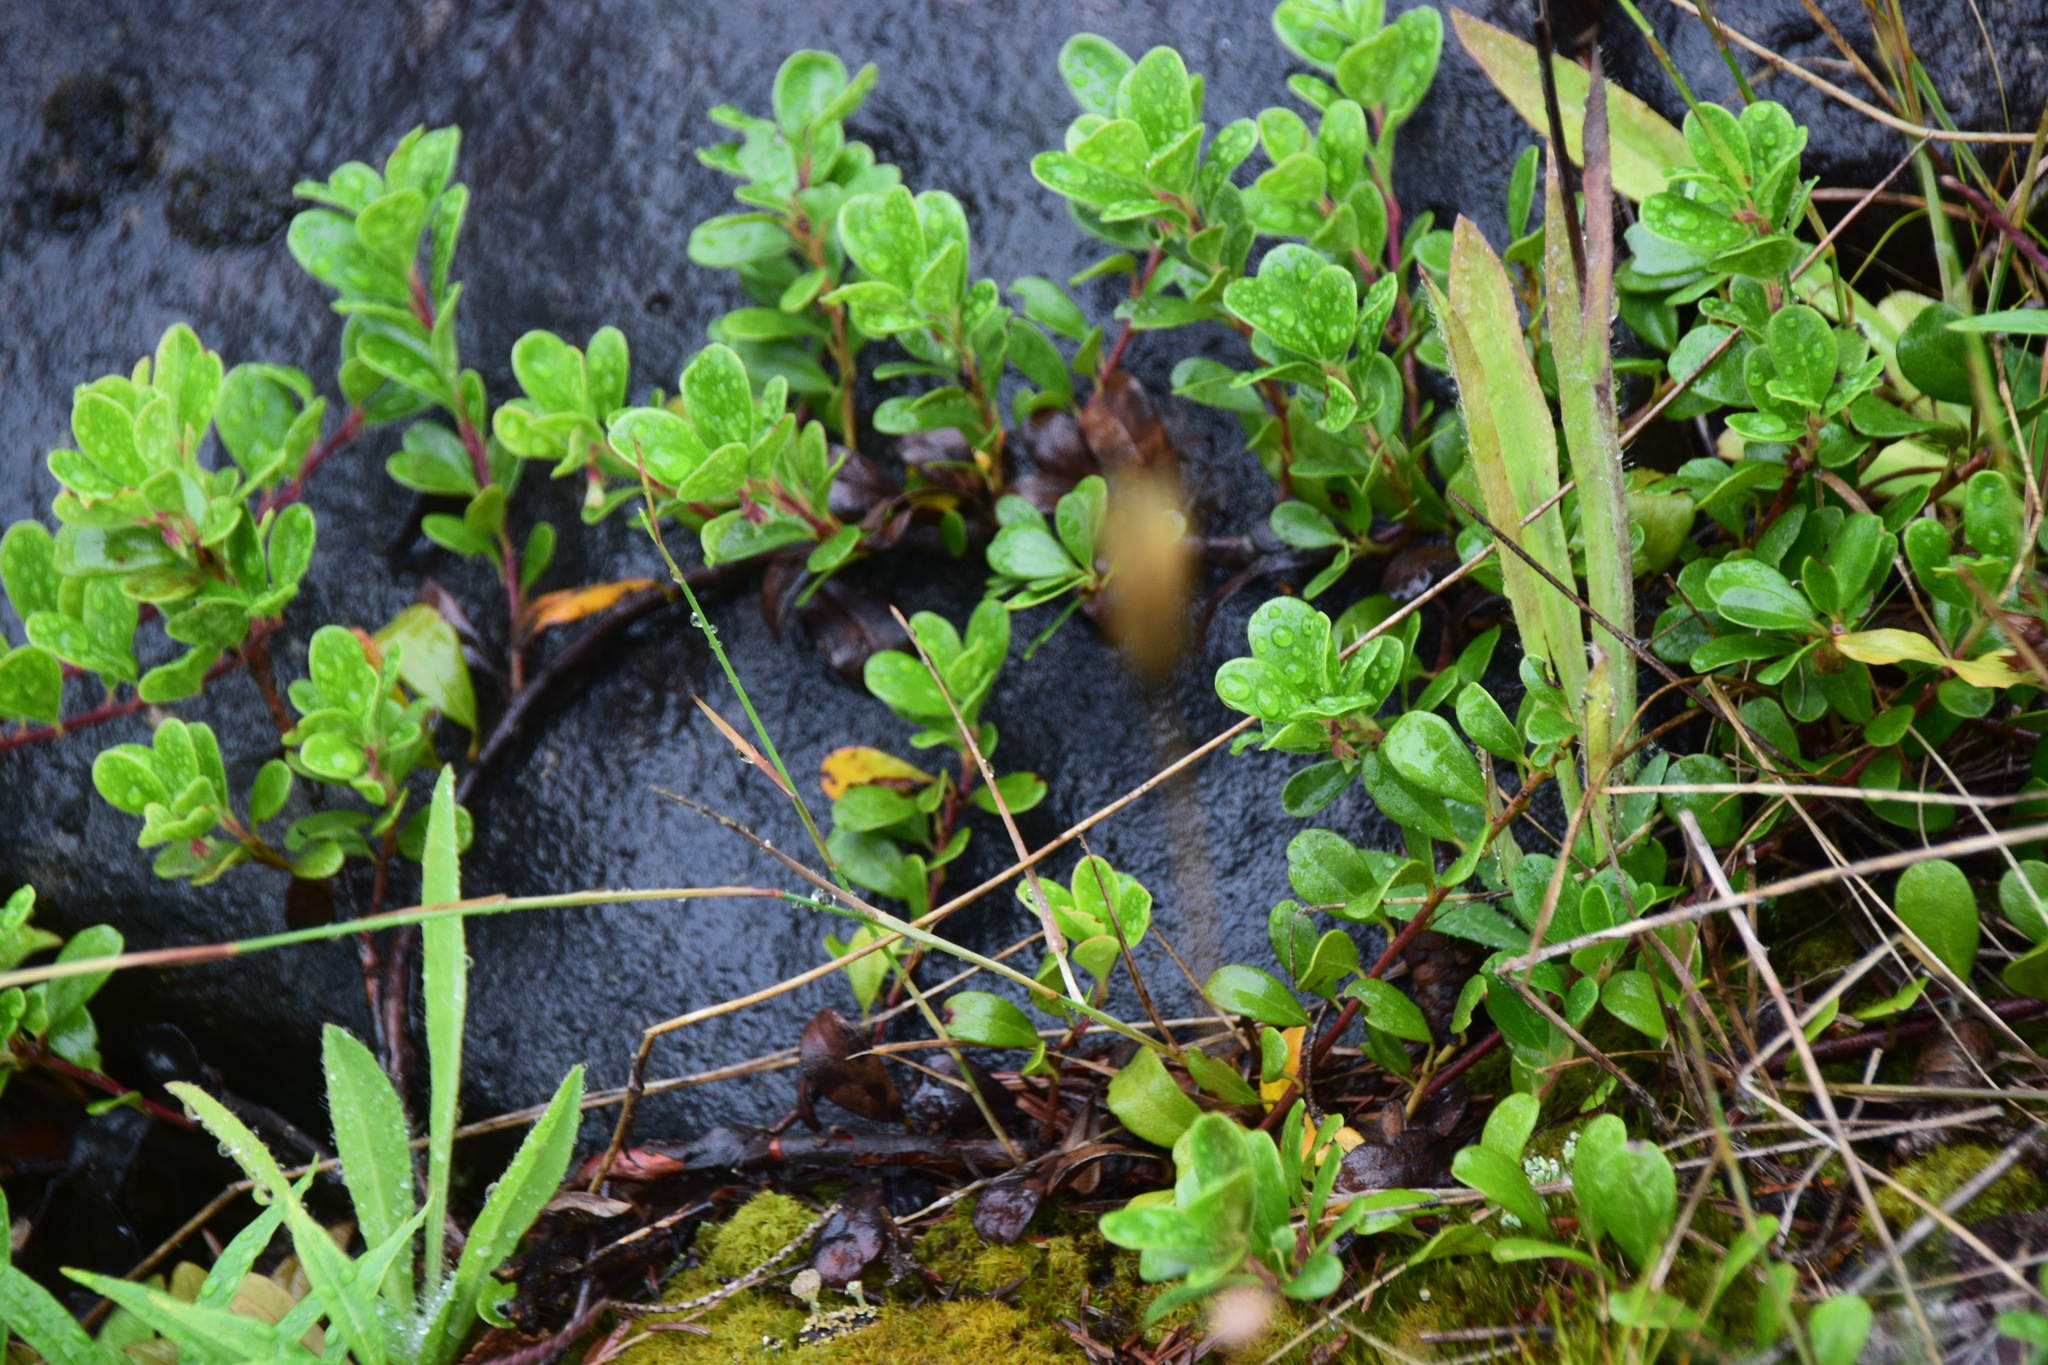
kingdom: Plantae
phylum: Tracheophyta
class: Magnoliopsida
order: Ericales
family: Ericaceae
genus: Arctostaphylos
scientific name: Arctostaphylos uva-ursi
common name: Bearberry
